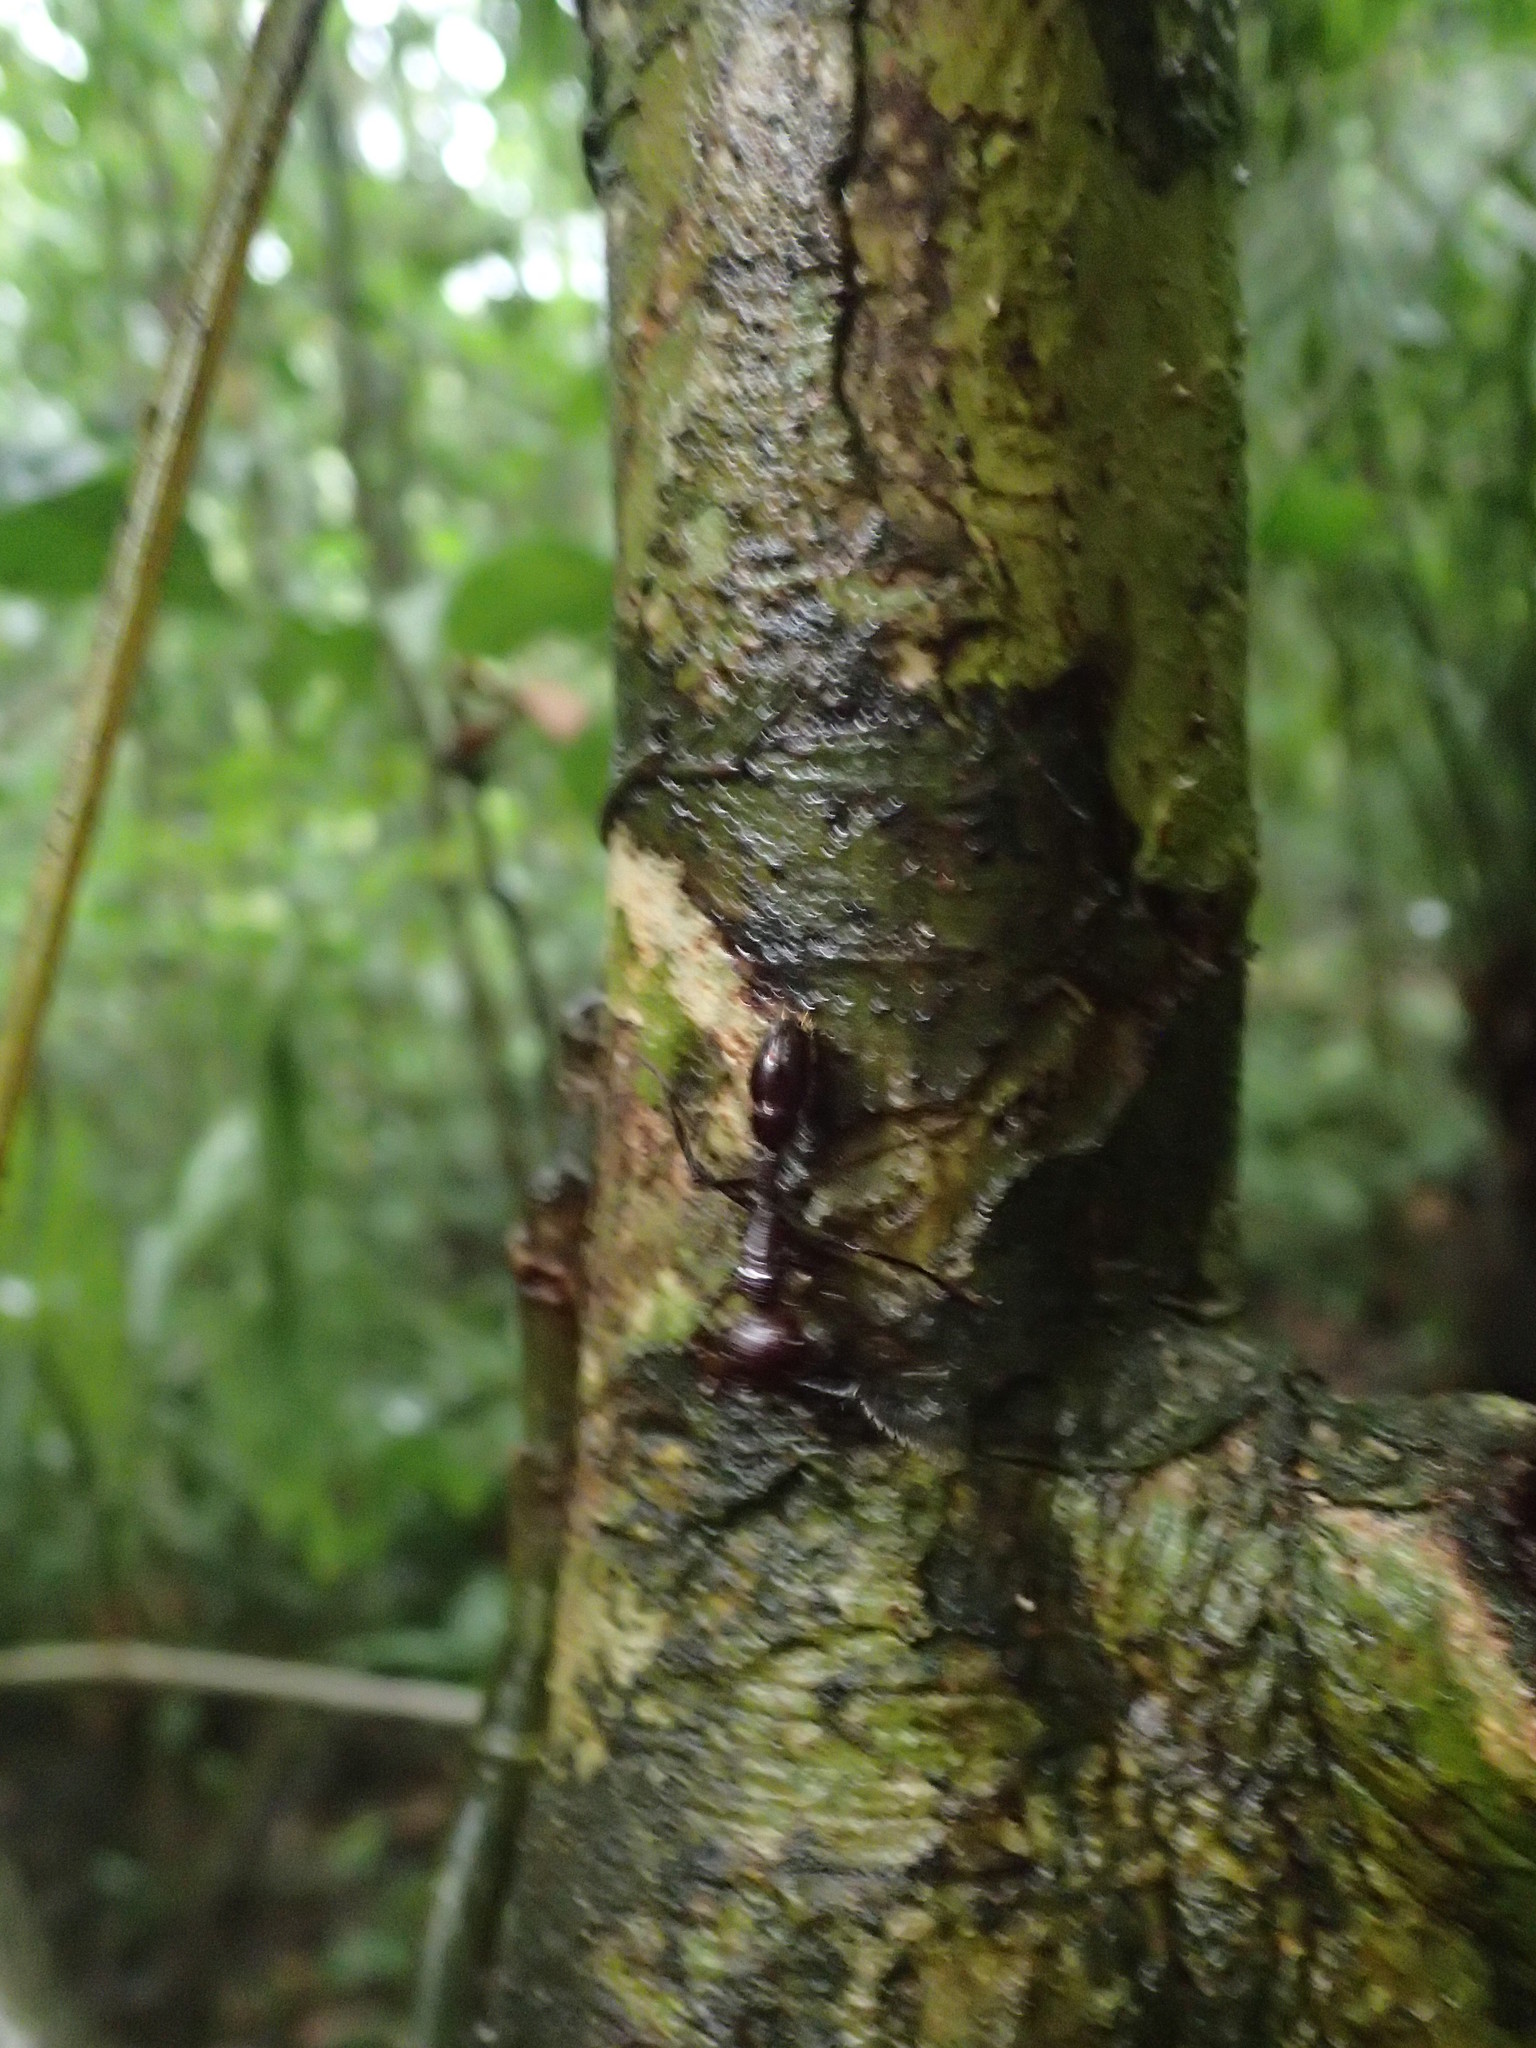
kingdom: Animalia
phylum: Arthropoda
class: Insecta
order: Hymenoptera
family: Formicidae
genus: Paraponera
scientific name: Paraponera clavata
